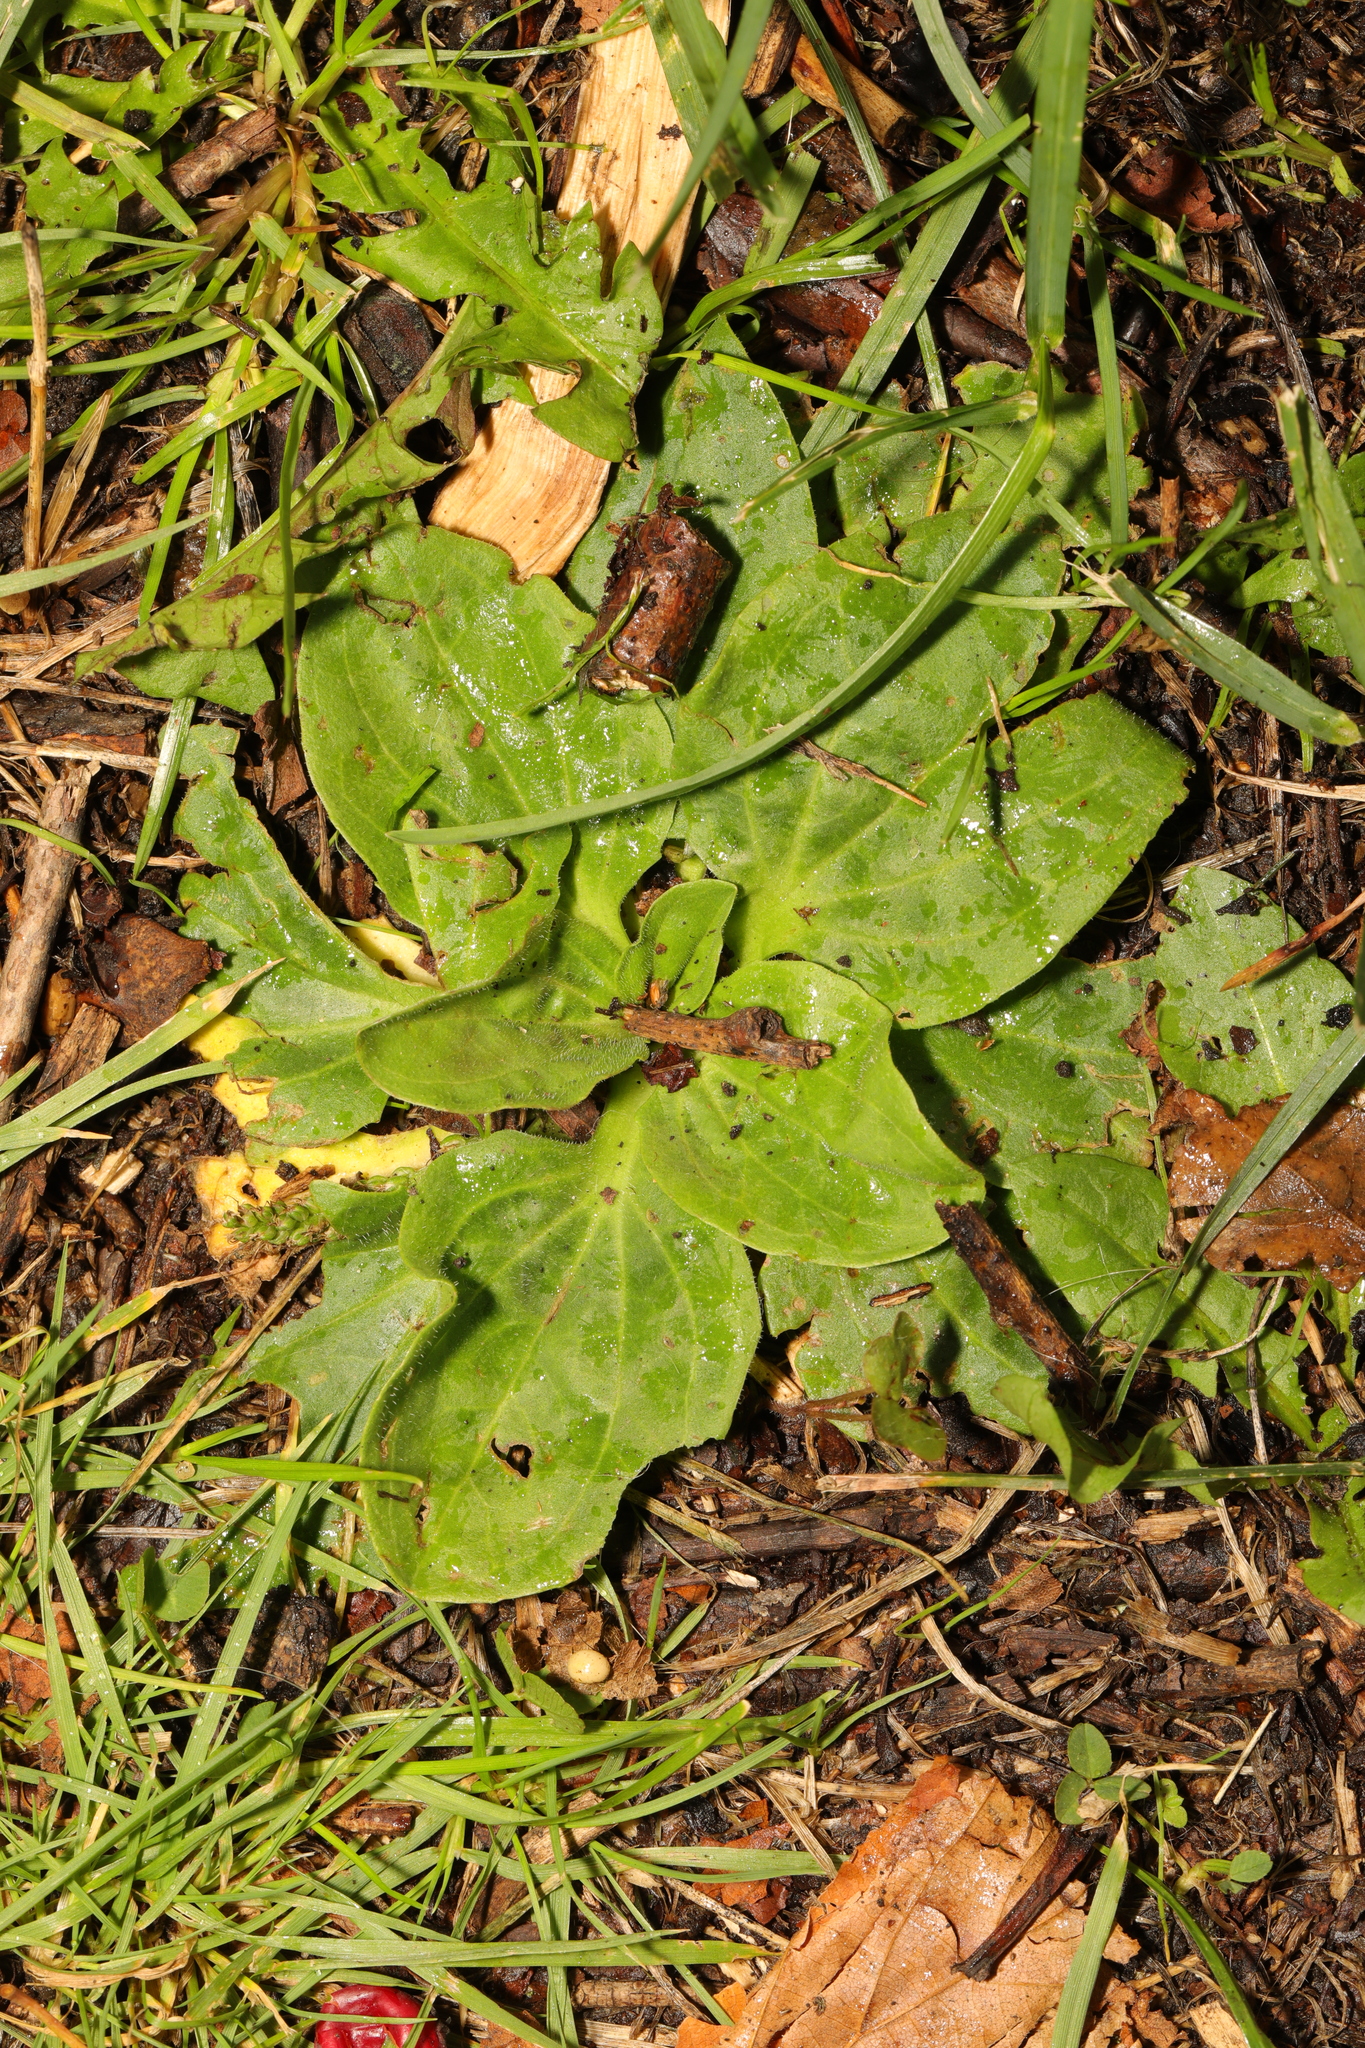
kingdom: Plantae
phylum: Tracheophyta
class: Magnoliopsida
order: Lamiales
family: Plantaginaceae
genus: Plantago
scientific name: Plantago major
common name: Common plantain
